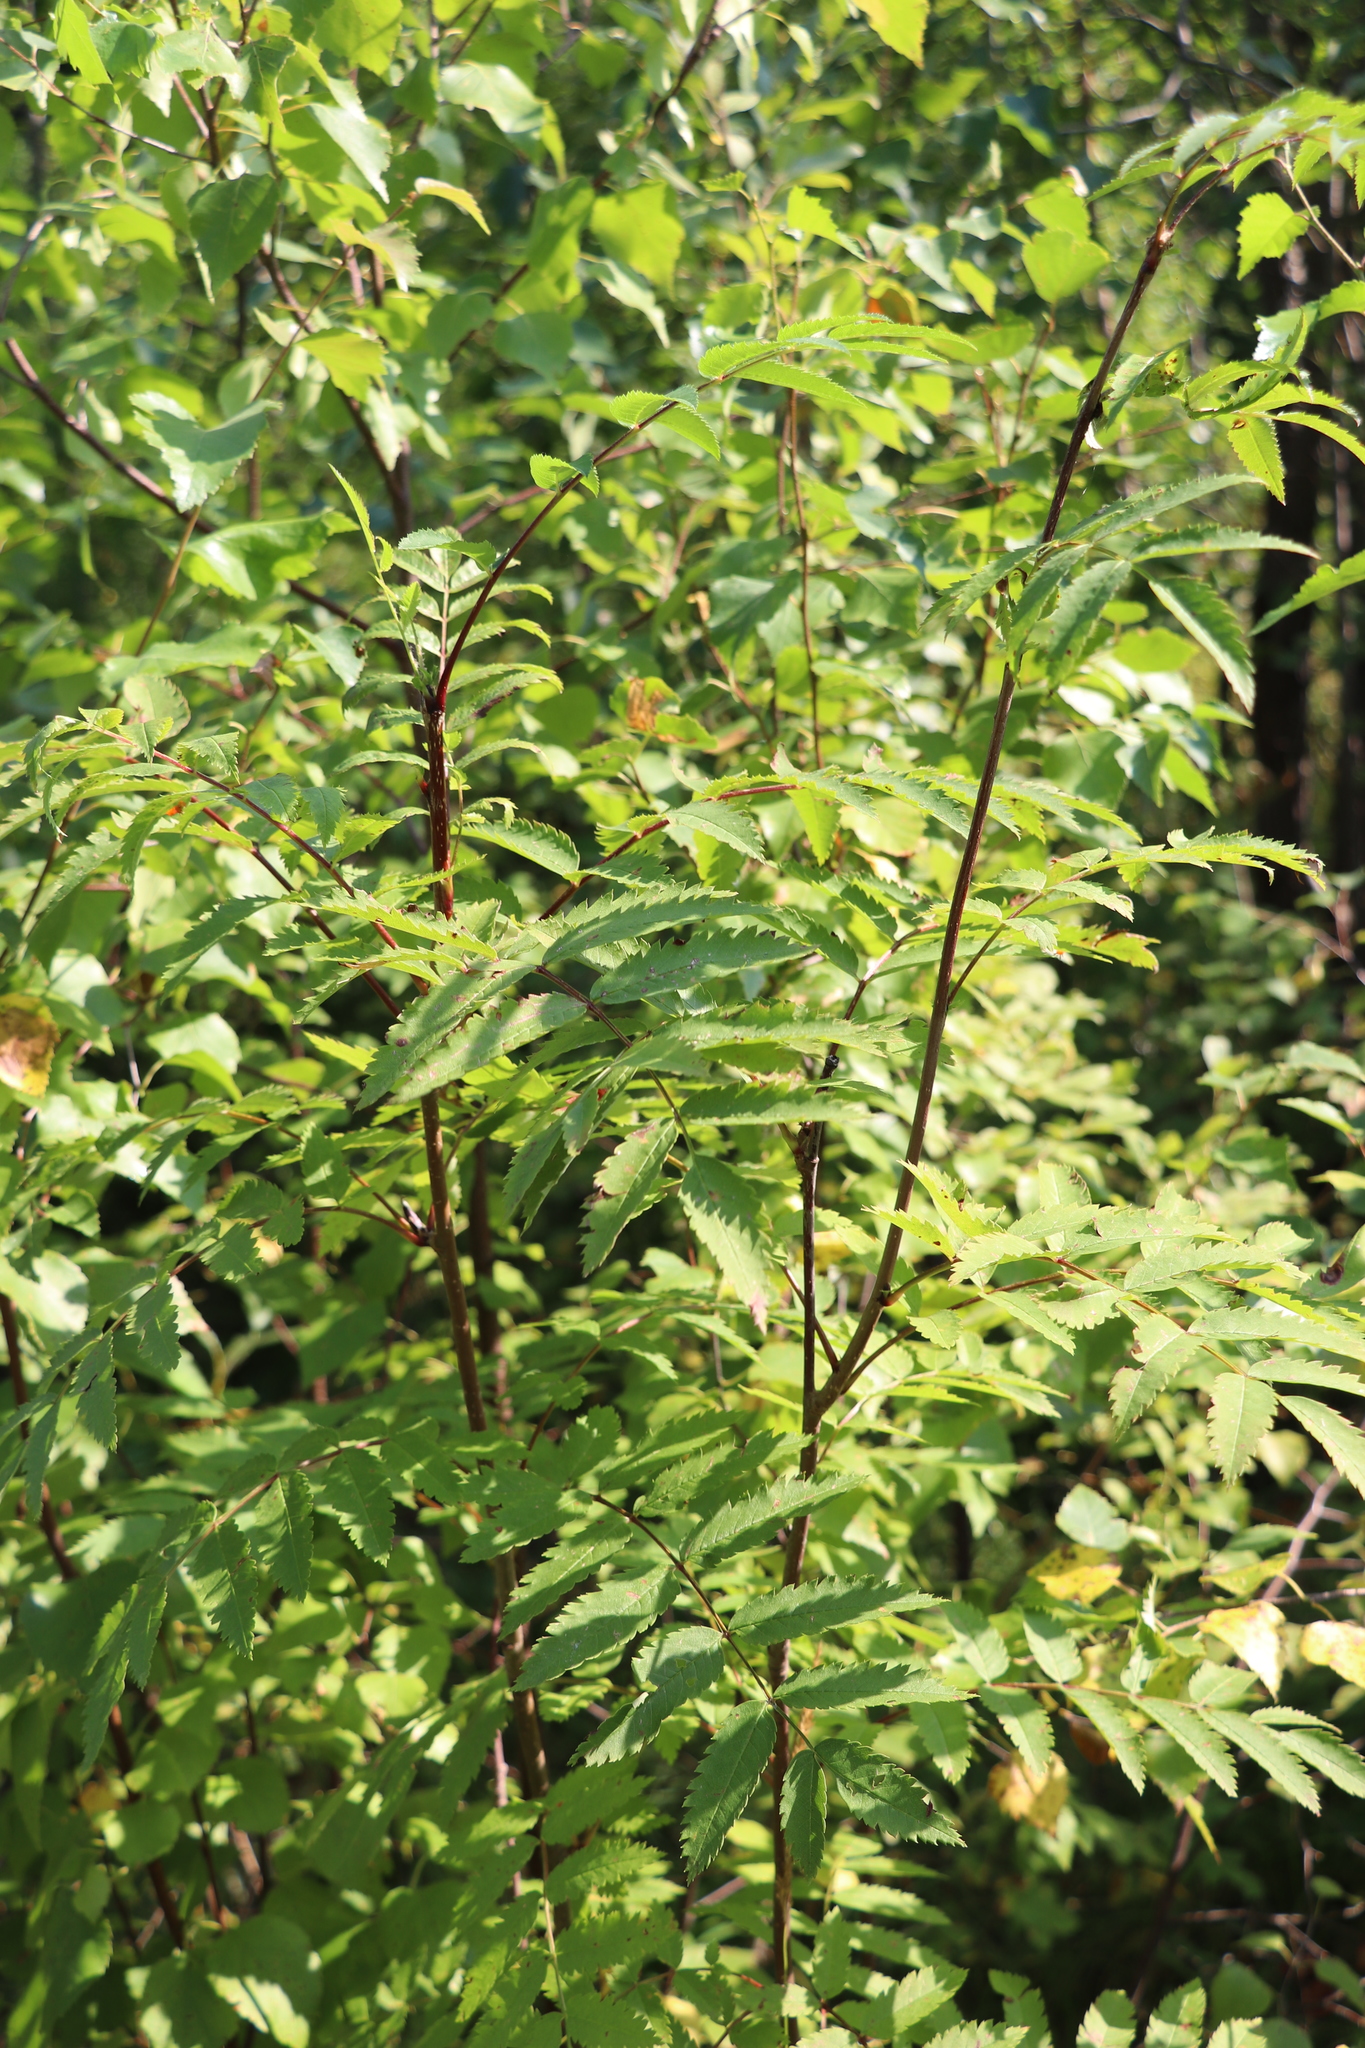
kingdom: Plantae
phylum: Tracheophyta
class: Magnoliopsida
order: Rosales
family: Rosaceae
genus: Sorbus
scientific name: Sorbus aucuparia
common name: Rowan
